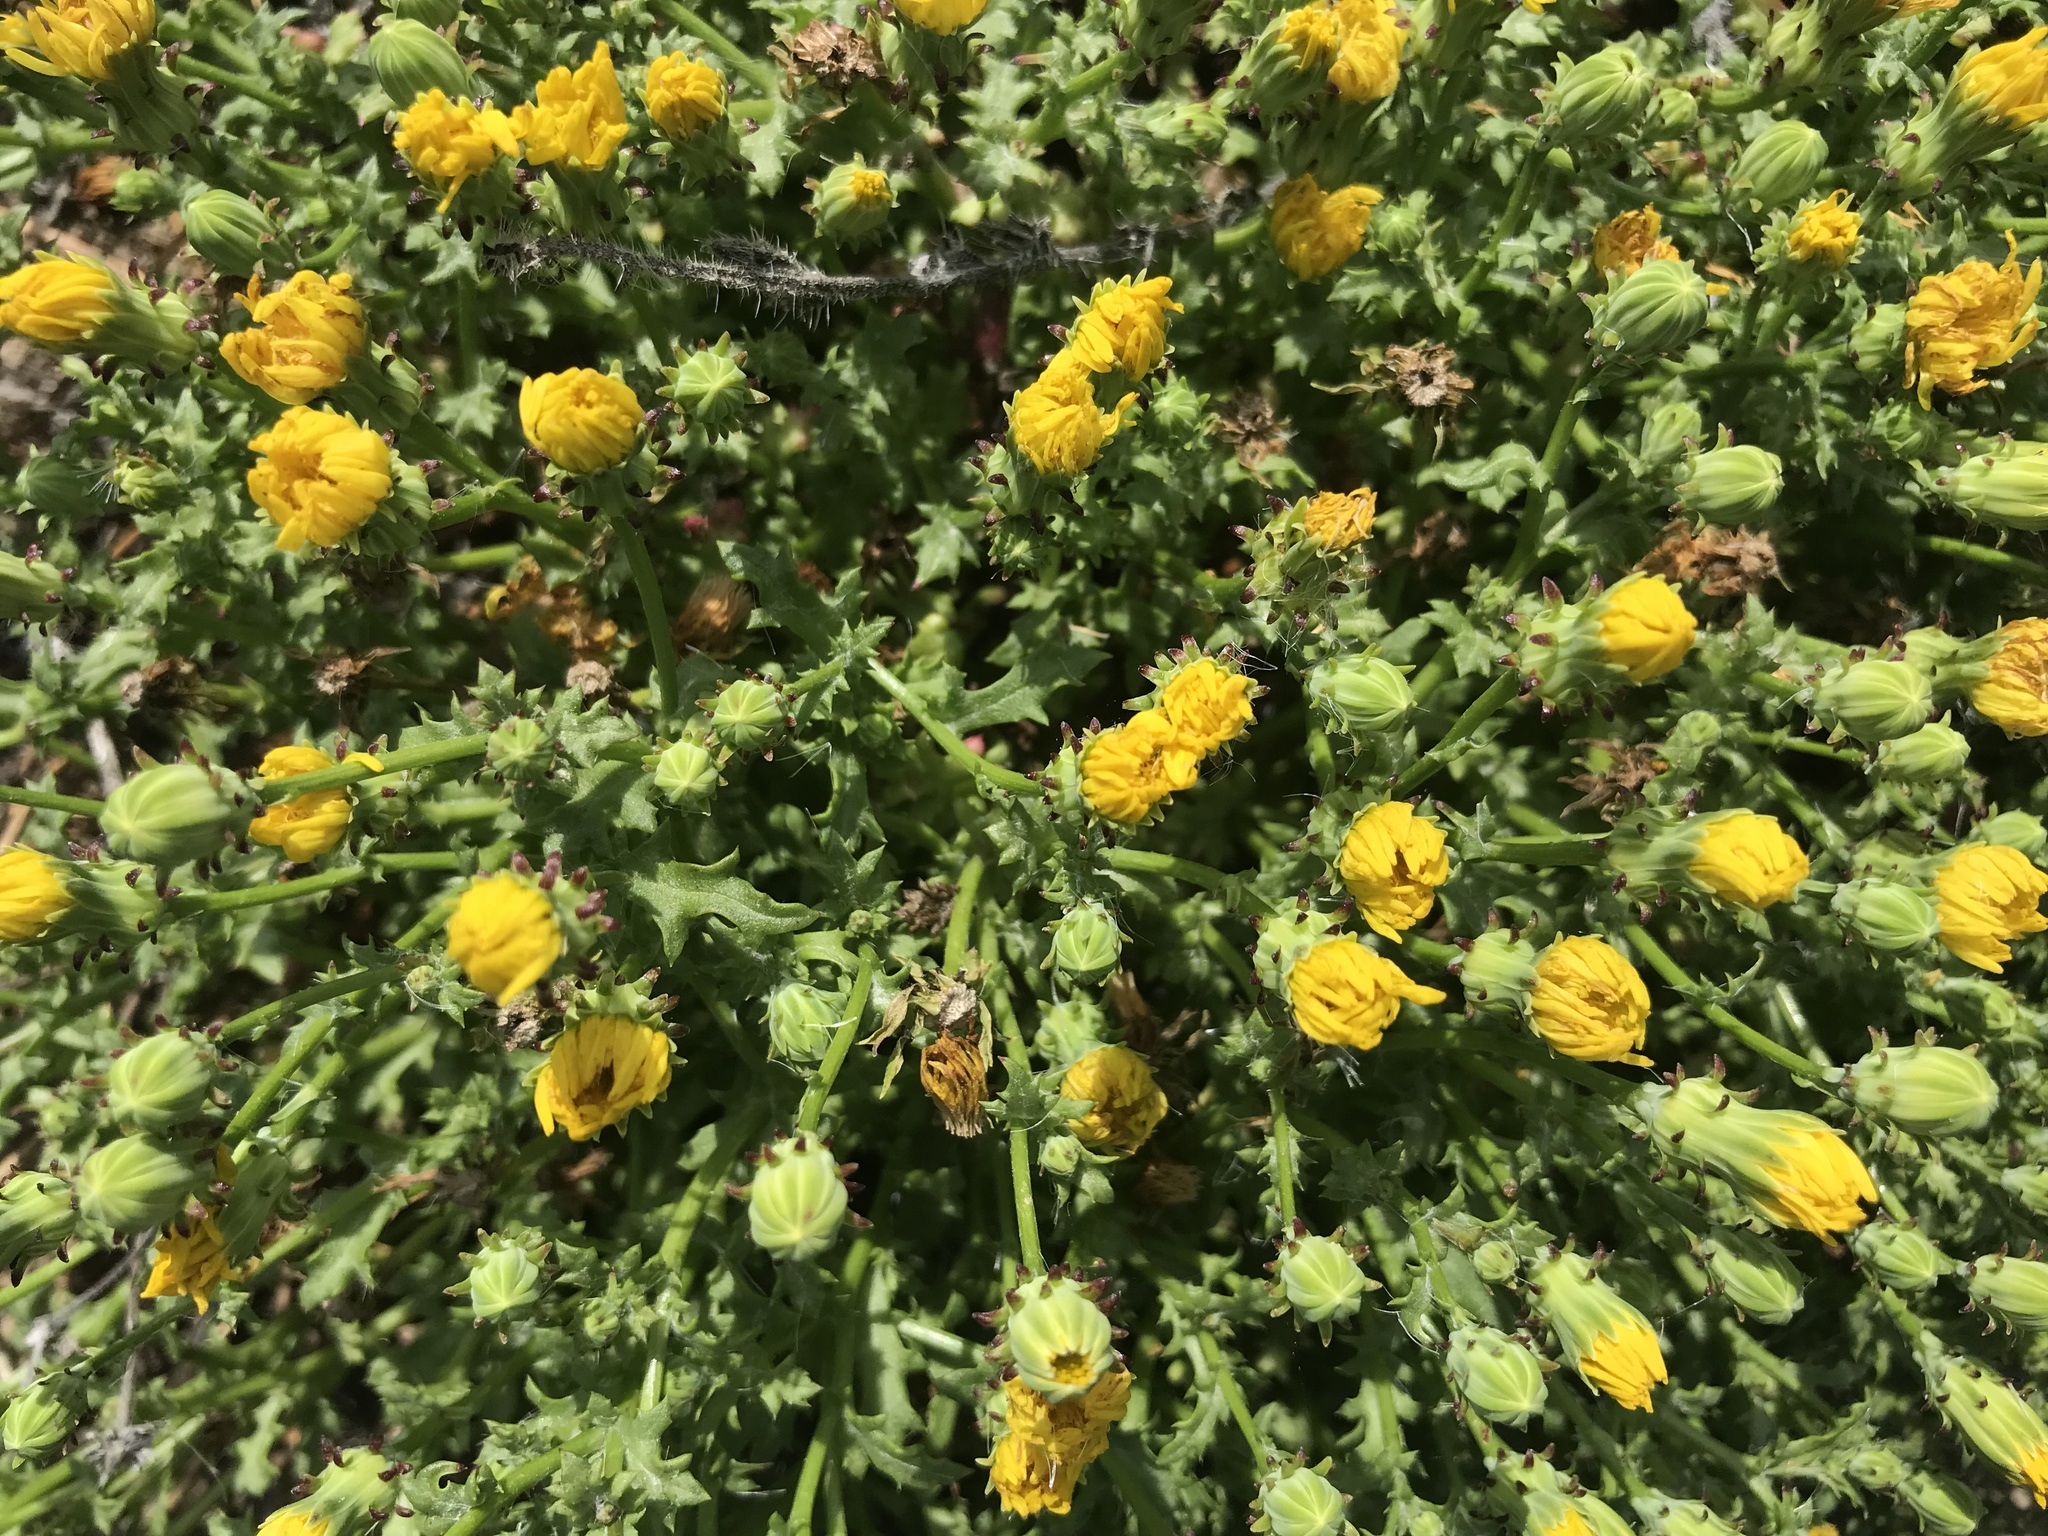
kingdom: Plantae
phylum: Tracheophyta
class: Magnoliopsida
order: Asterales
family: Asteraceae
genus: Malacothrix
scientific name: Malacothrix foliosa
